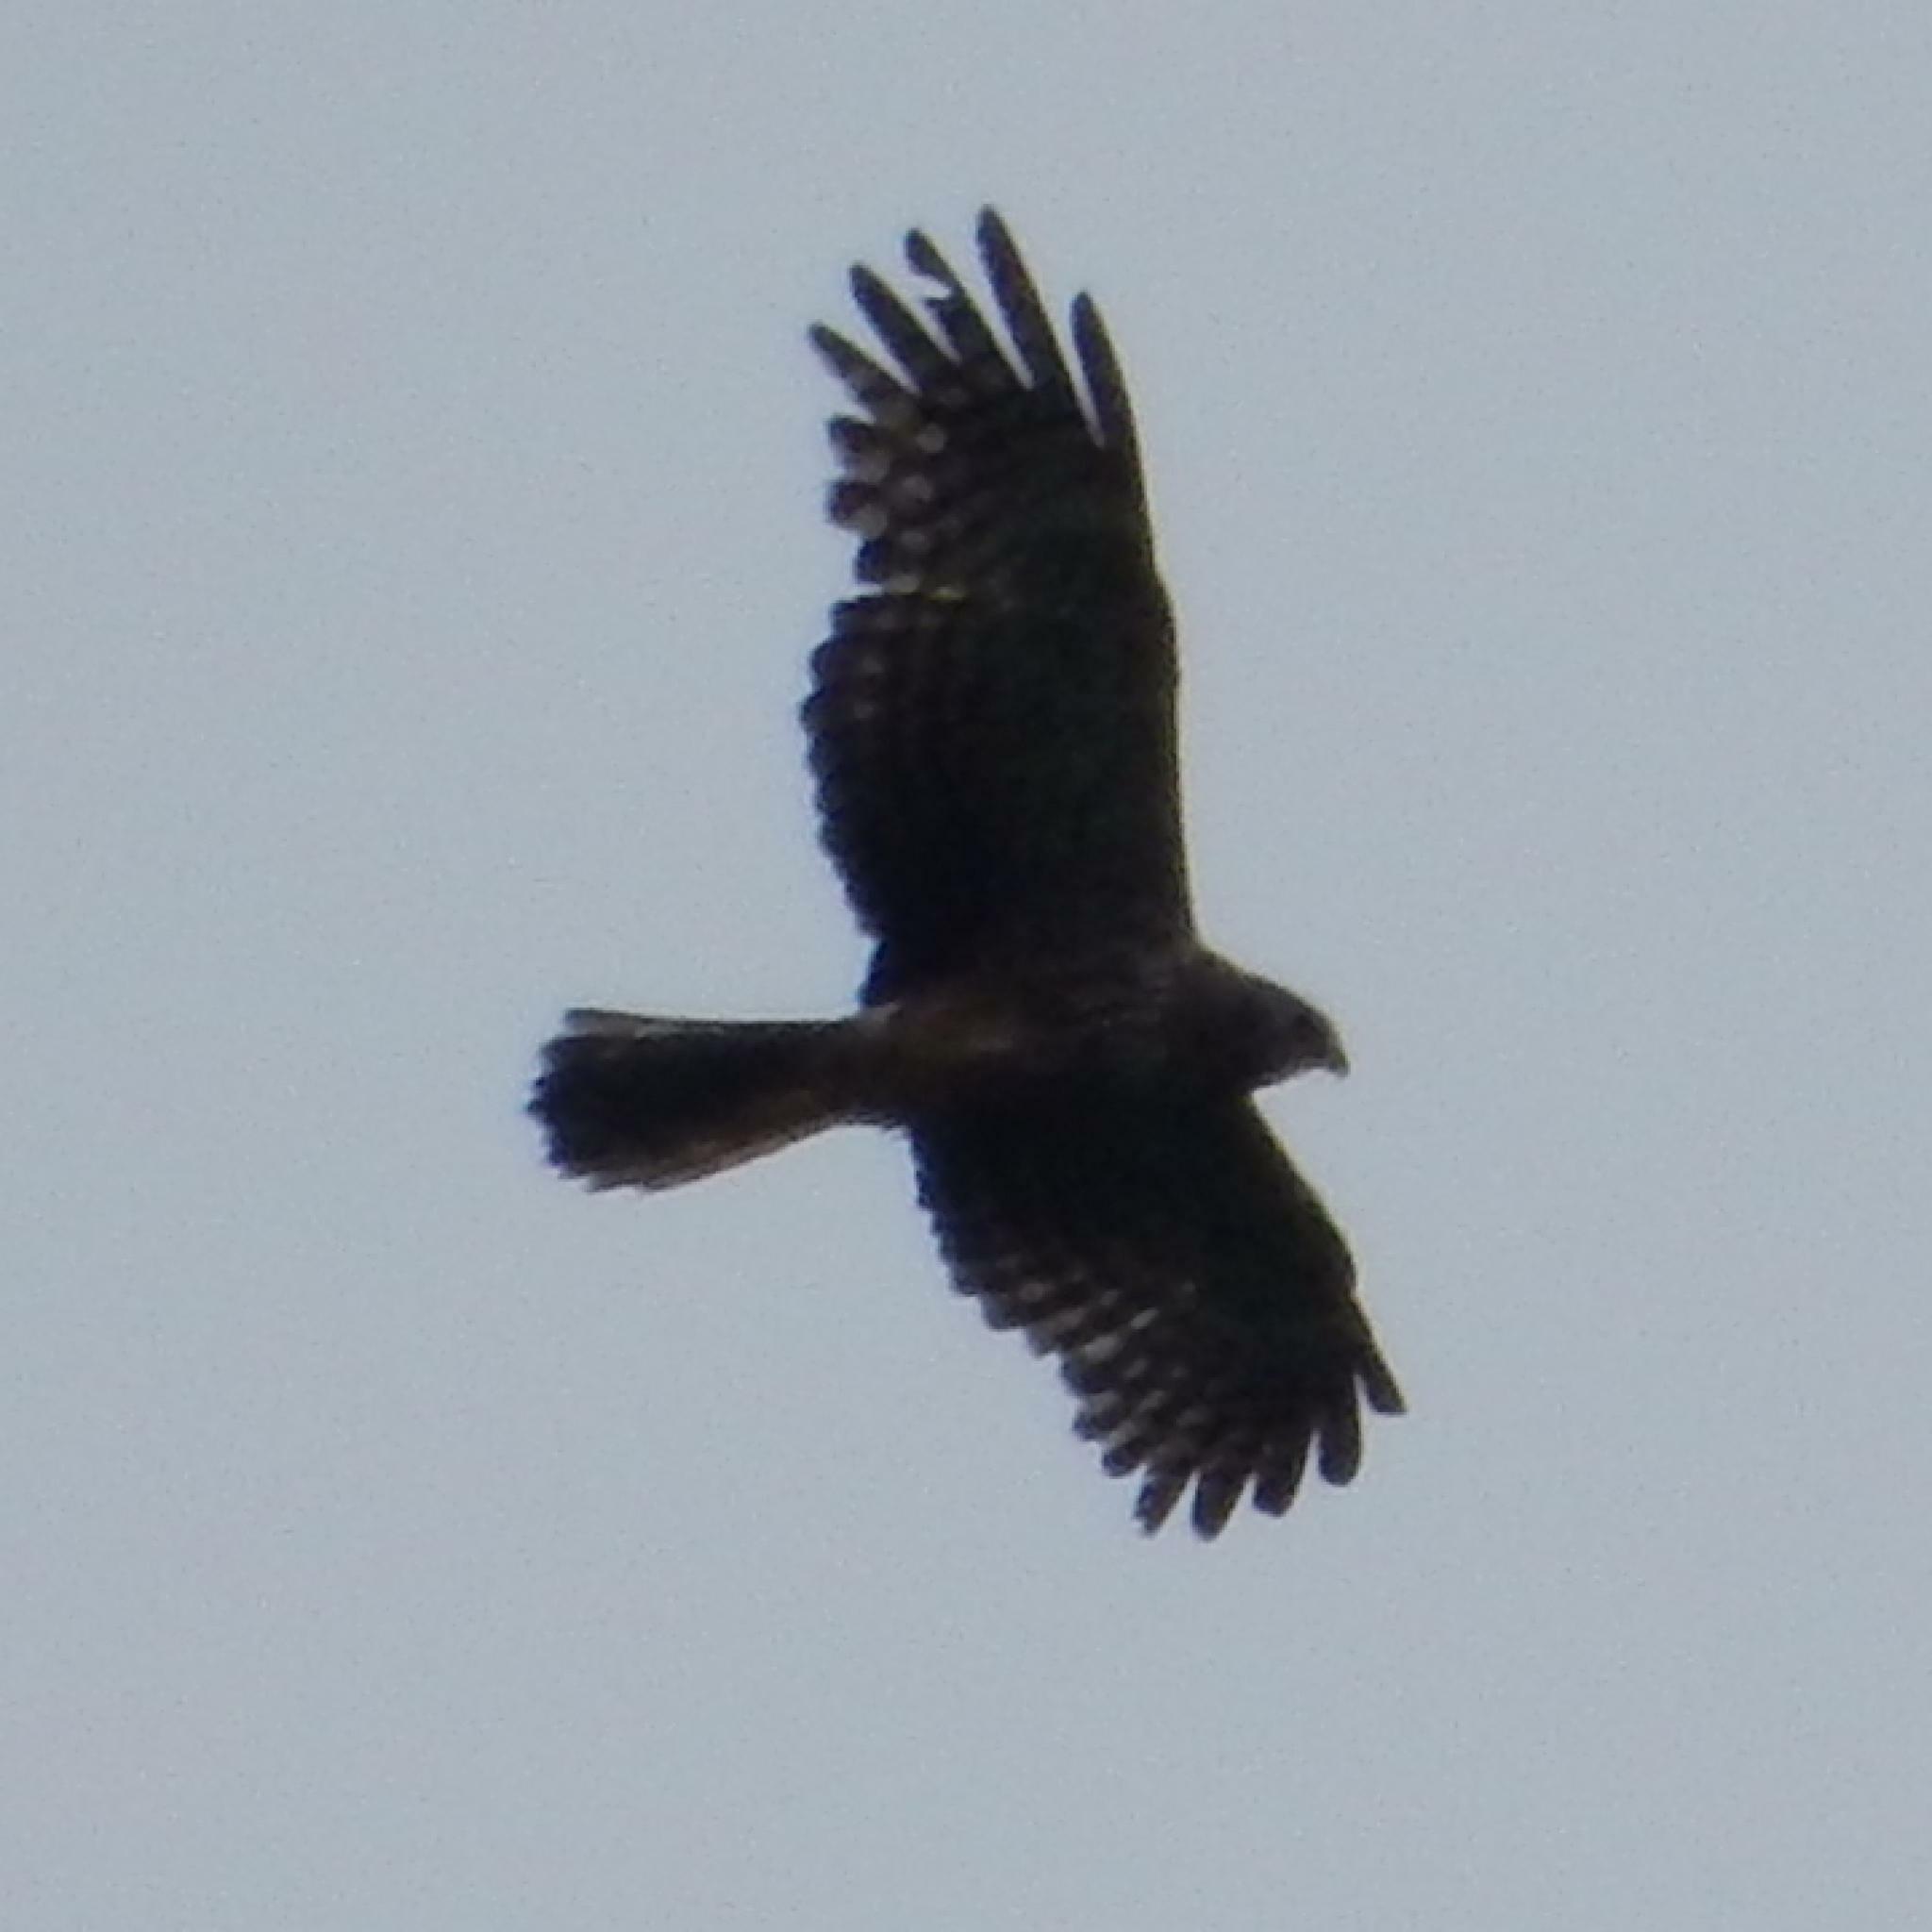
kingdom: Animalia
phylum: Chordata
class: Aves
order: Accipitriformes
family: Accipitridae
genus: Circus
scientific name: Circus ranivorus
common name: African marsh-harrier
